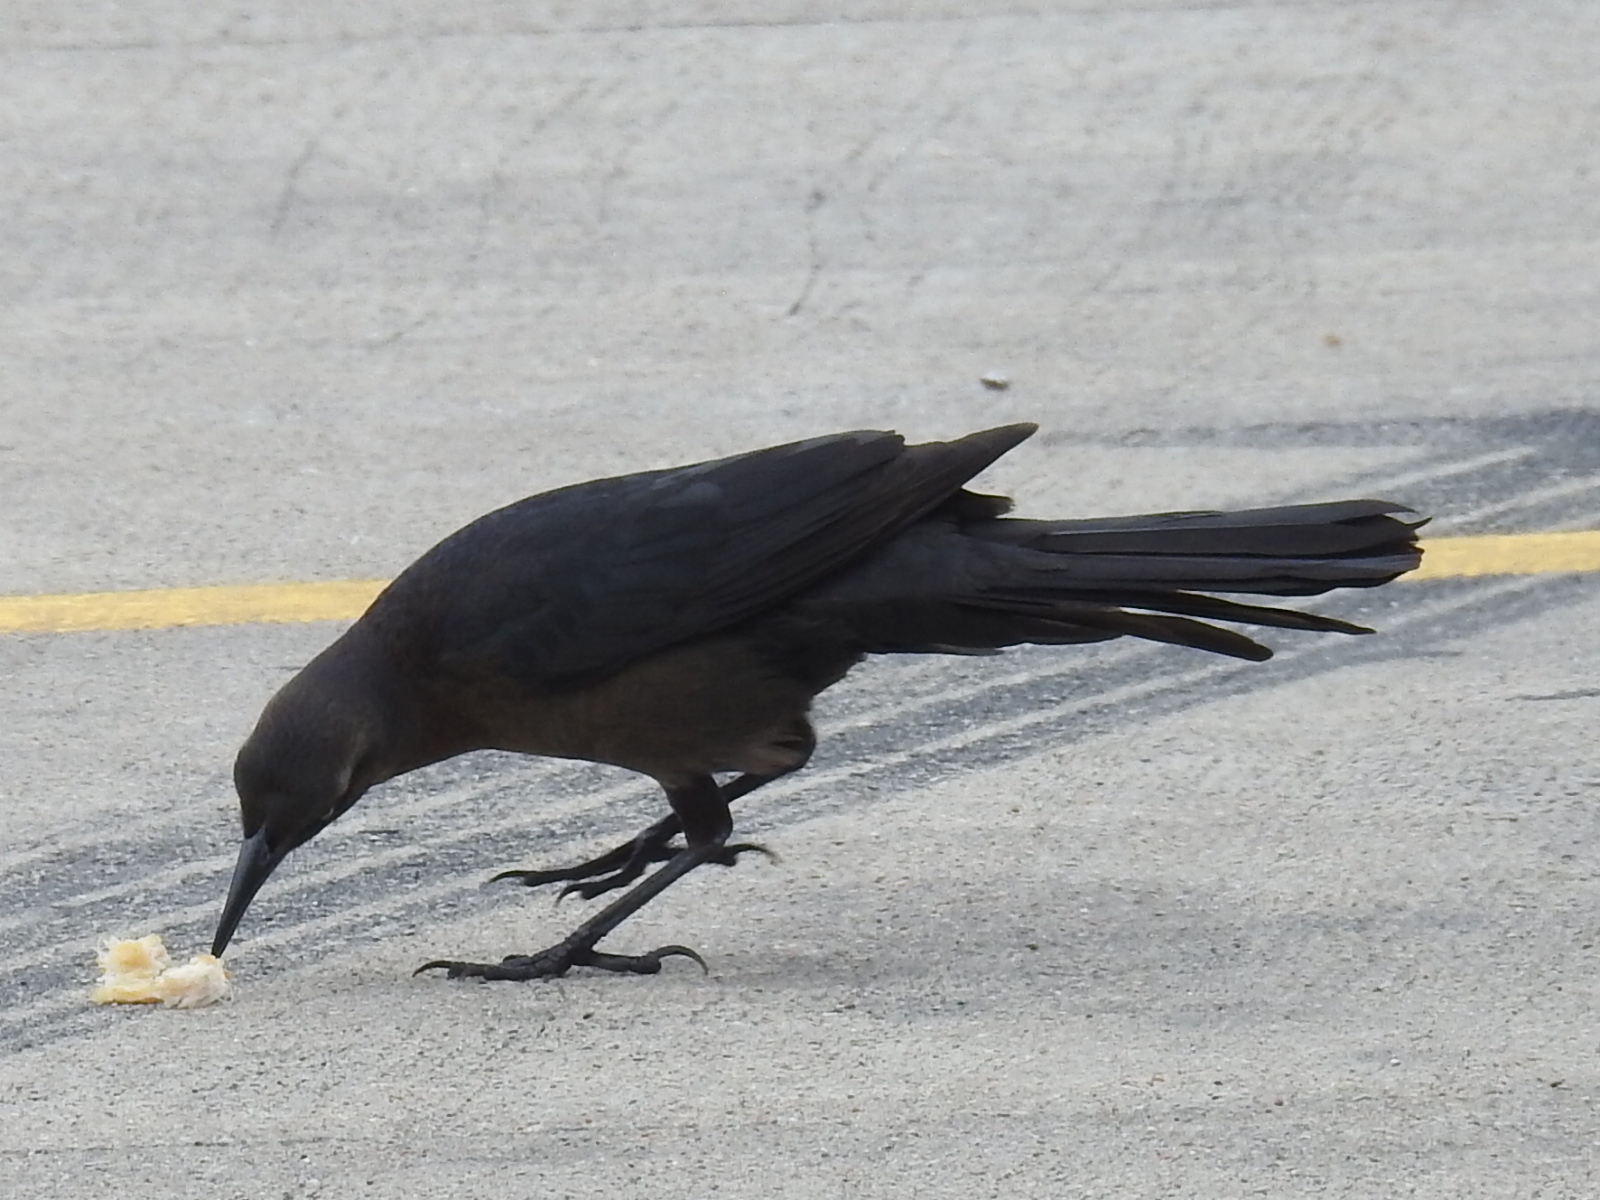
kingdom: Animalia
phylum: Chordata
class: Aves
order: Passeriformes
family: Icteridae
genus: Quiscalus
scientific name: Quiscalus mexicanus
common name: Great-tailed grackle
